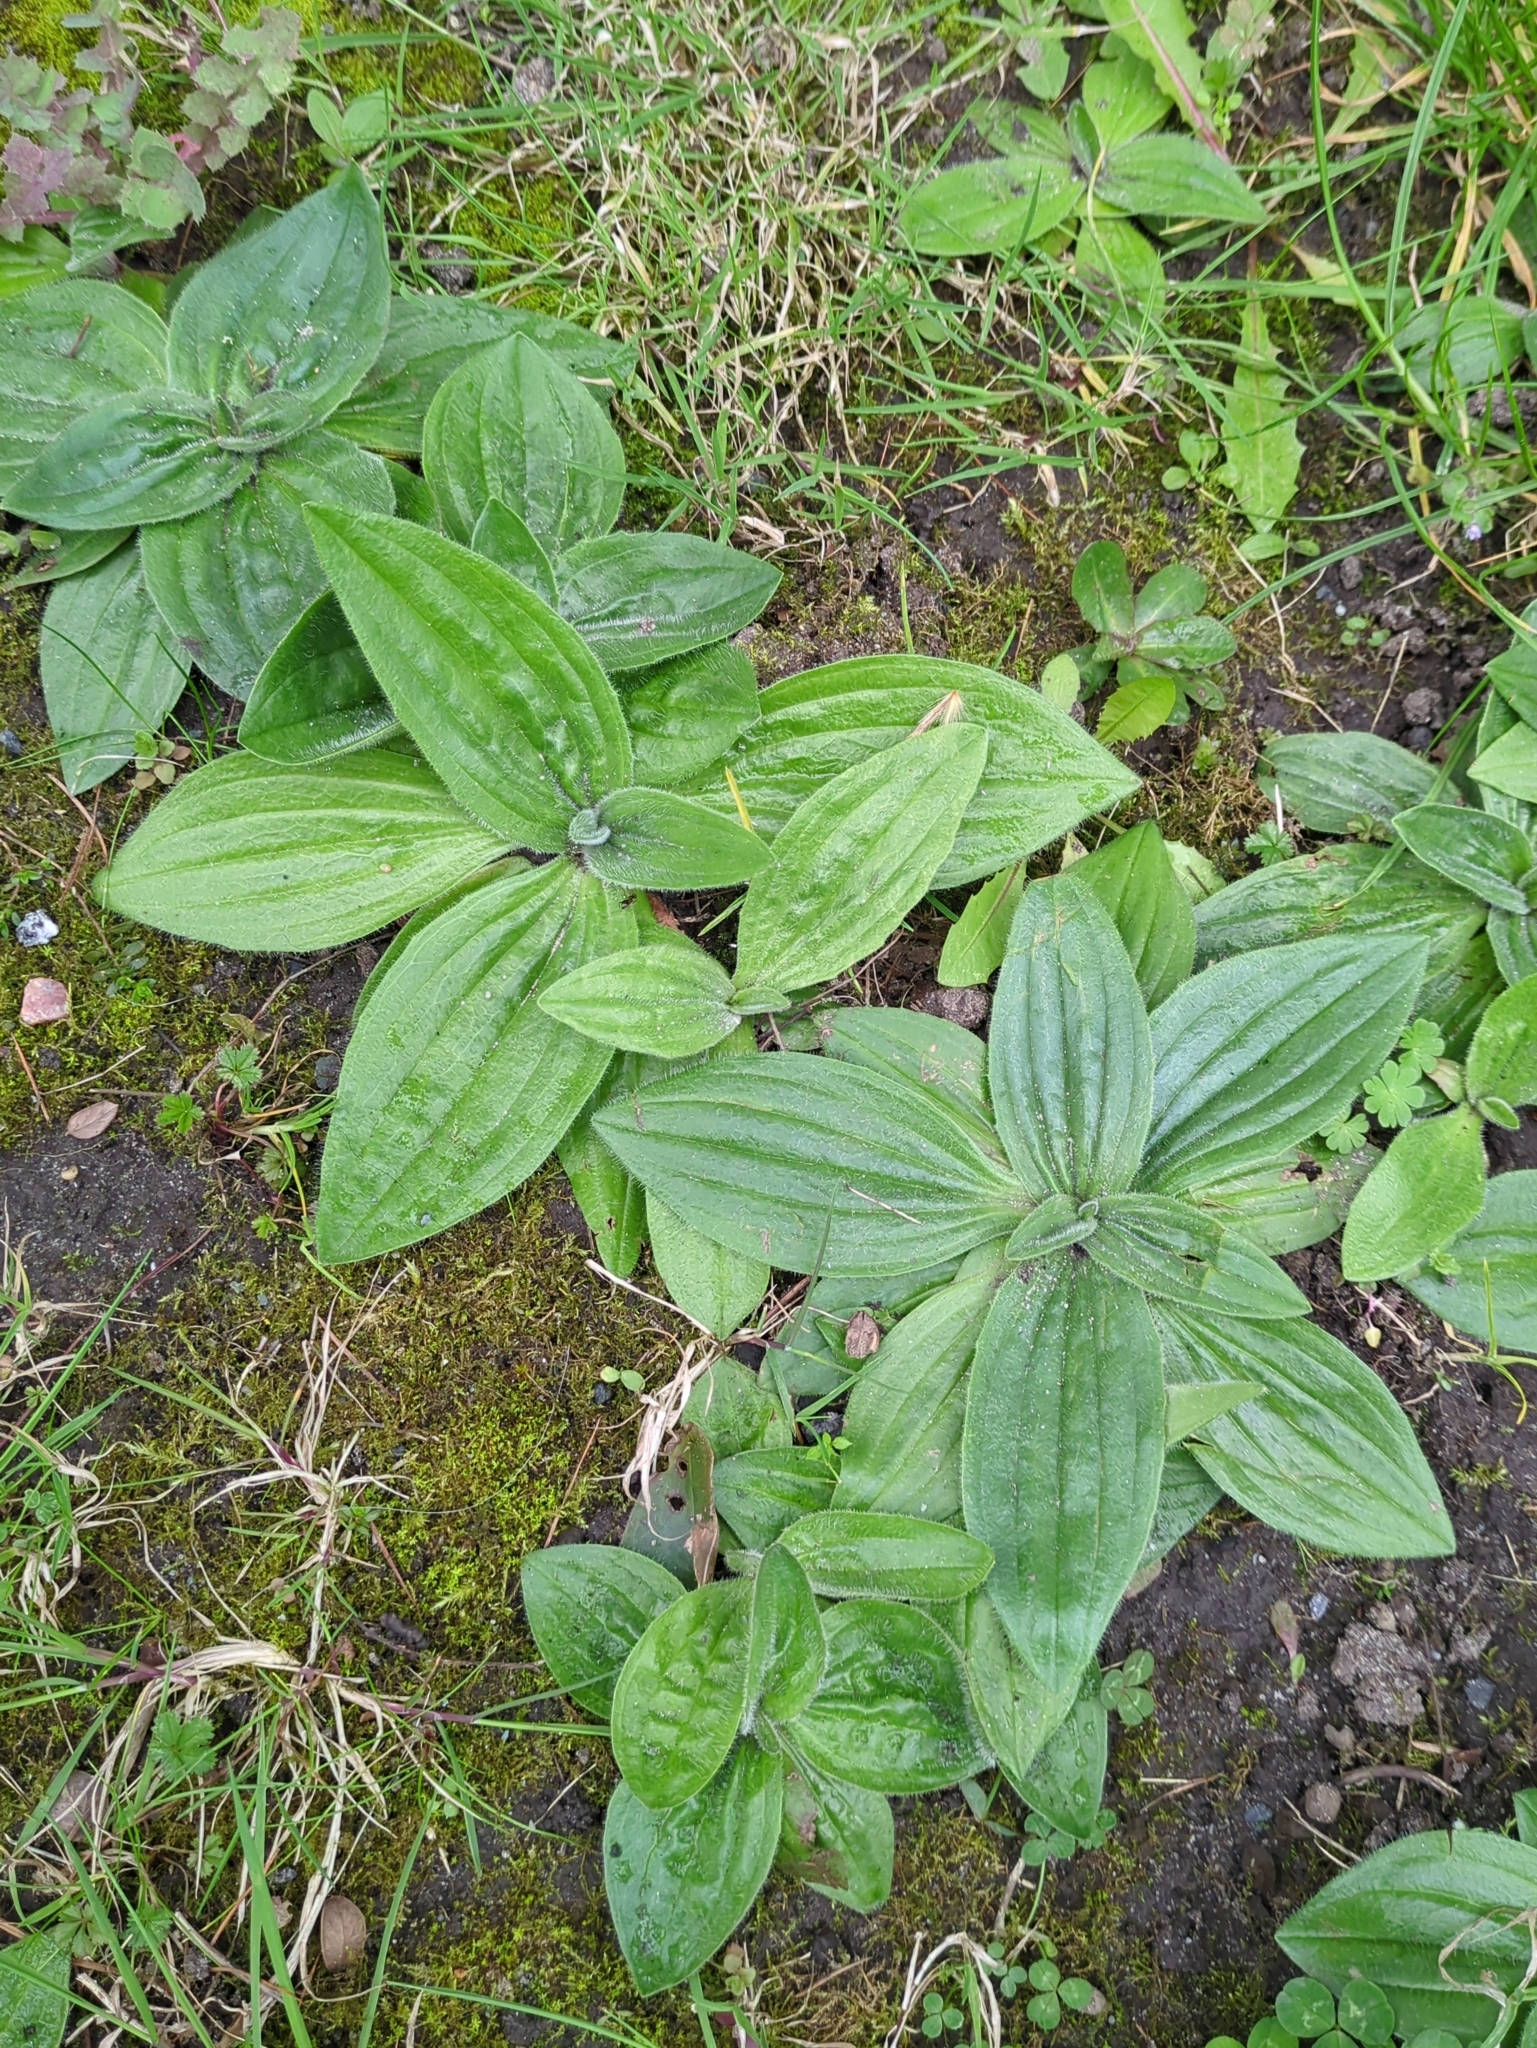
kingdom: Plantae
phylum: Tracheophyta
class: Magnoliopsida
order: Lamiales
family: Plantaginaceae
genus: Plantago
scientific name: Plantago media
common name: Hoary plantain
